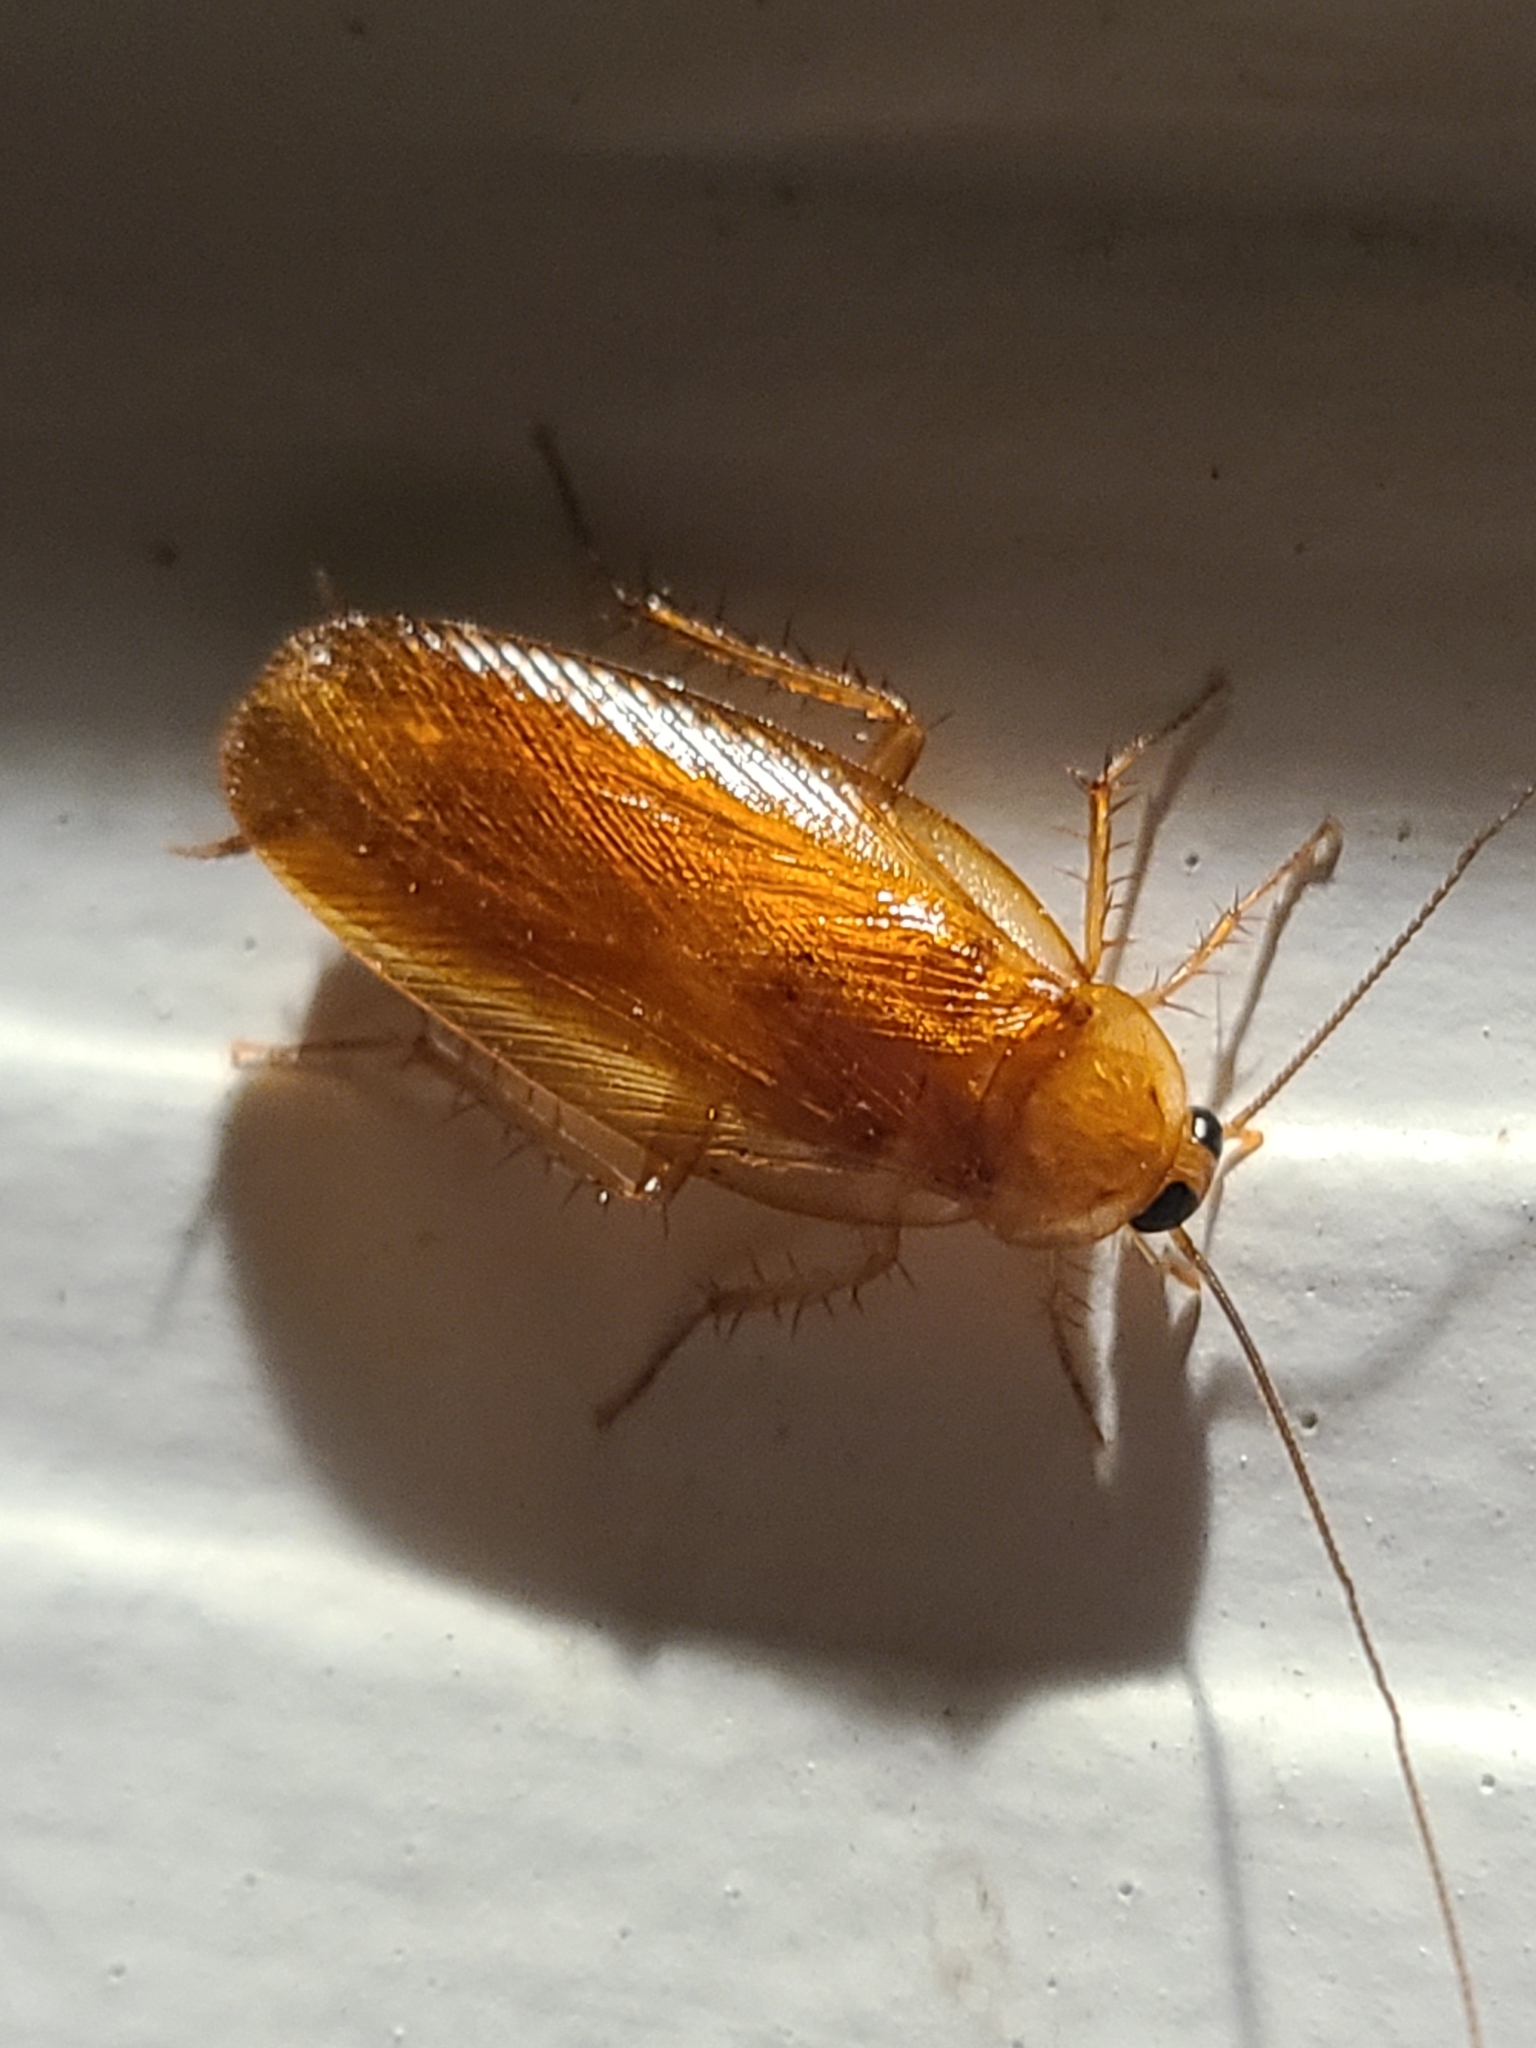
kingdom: Animalia
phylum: Arthropoda
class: Insecta
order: Blattodea
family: Ectobiidae
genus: Parcoblatta
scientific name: Parcoblatta virginica
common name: Virginia wood cockroach
